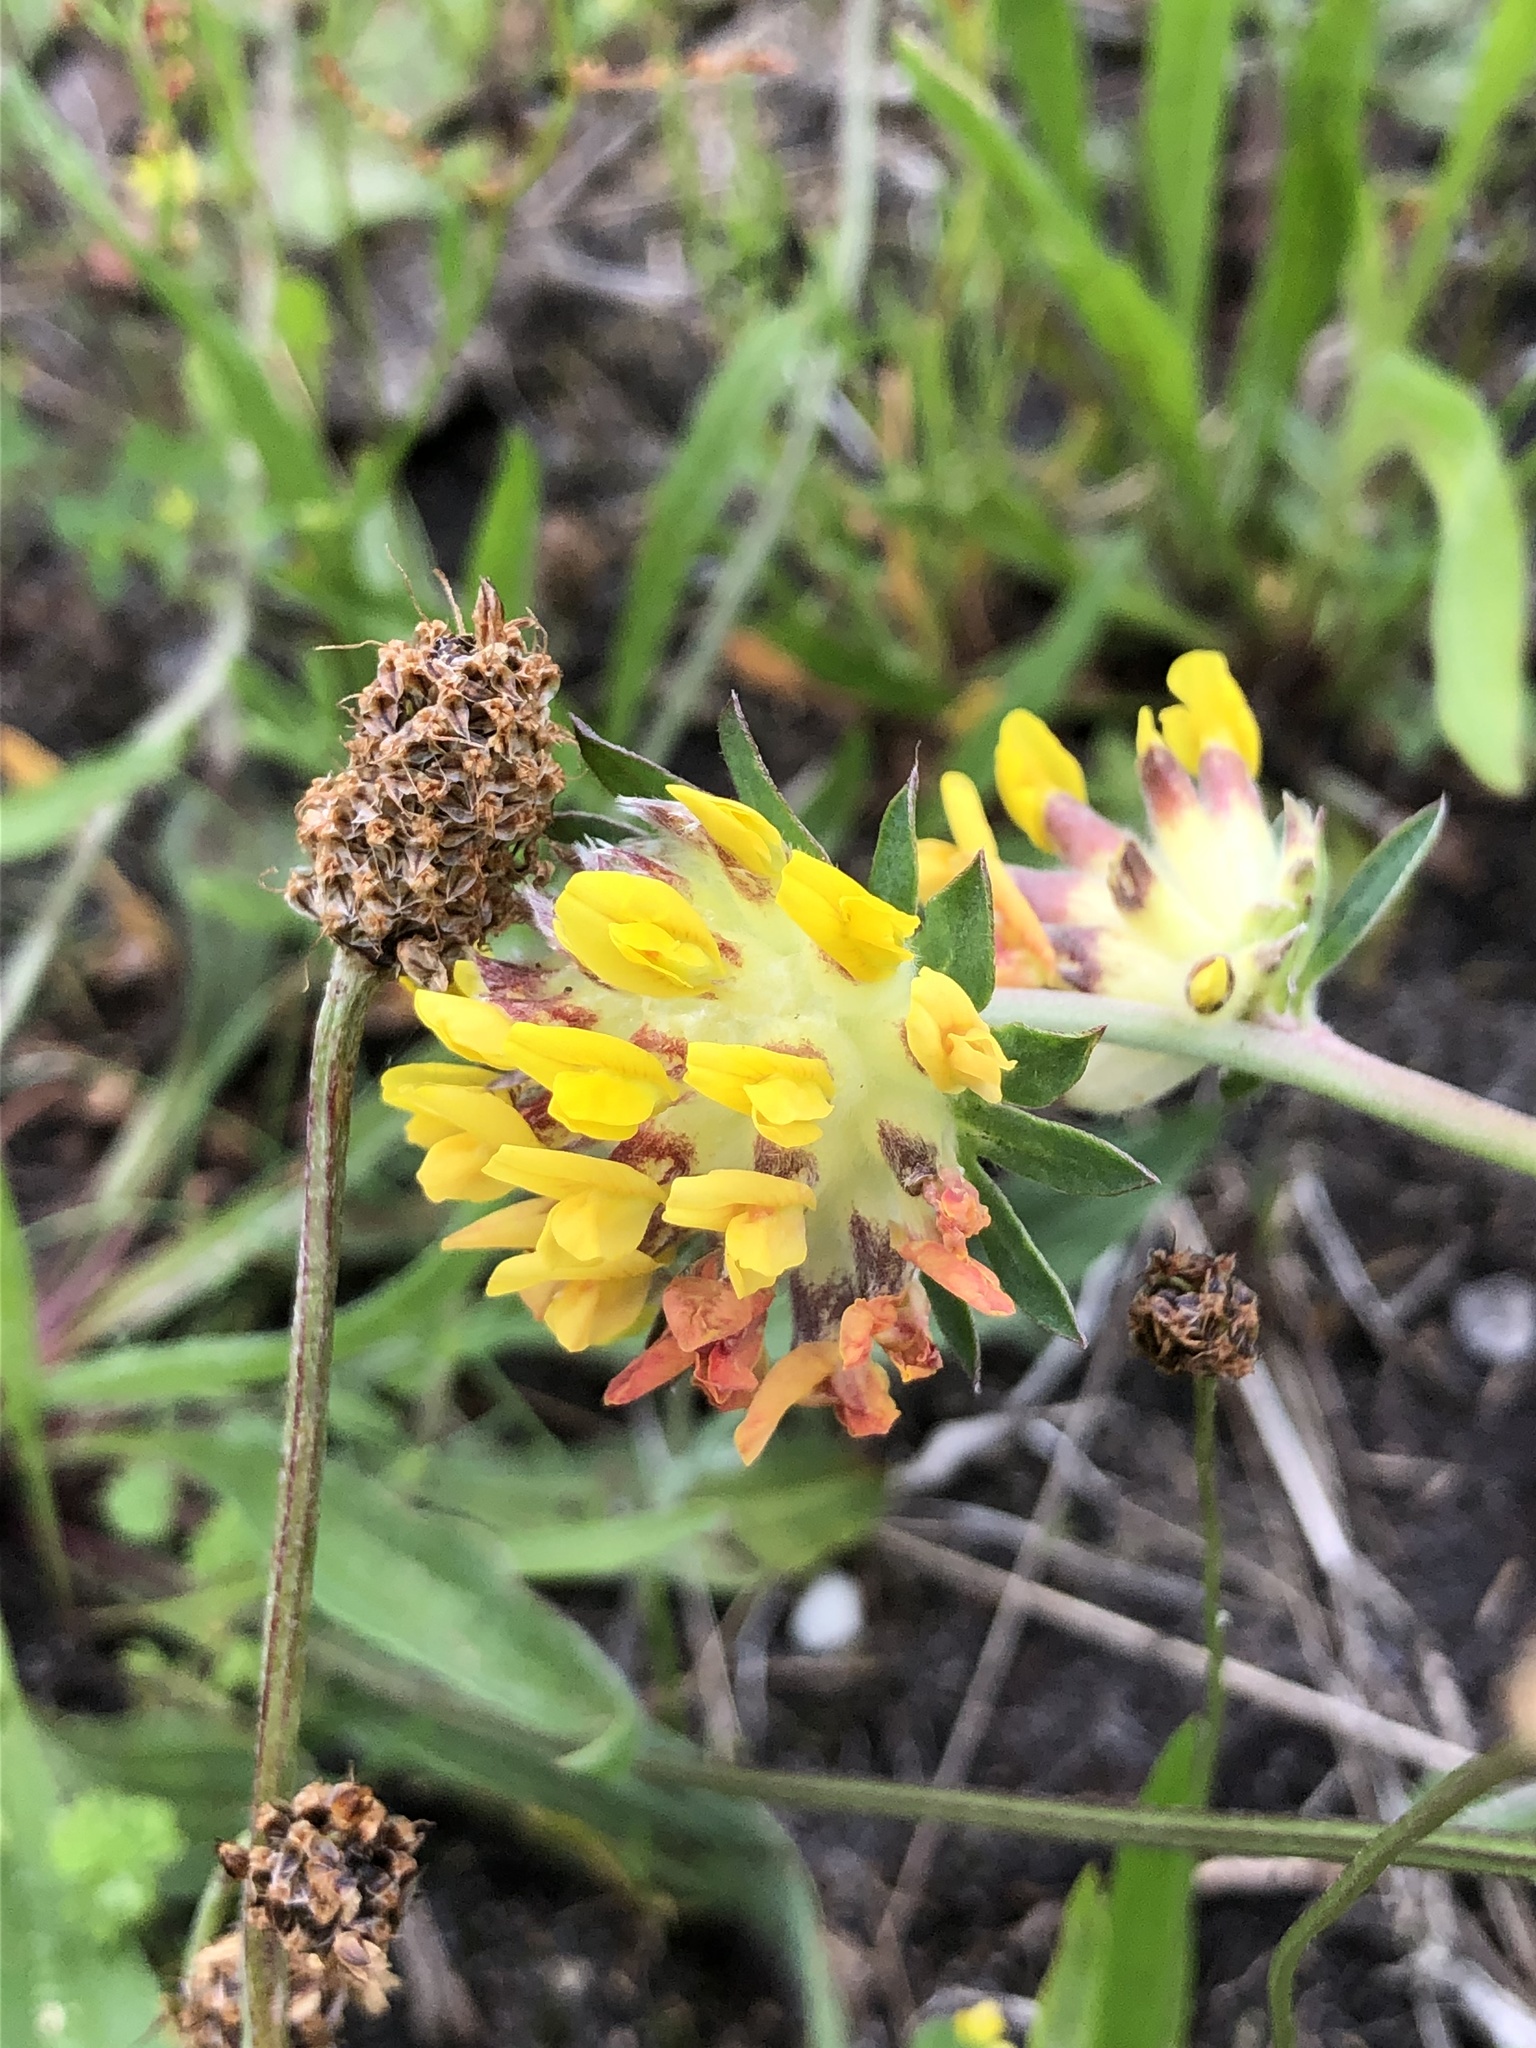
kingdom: Plantae
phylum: Tracheophyta
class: Magnoliopsida
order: Fabales
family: Fabaceae
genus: Anthyllis
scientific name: Anthyllis vulneraria
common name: Kidney vetch
